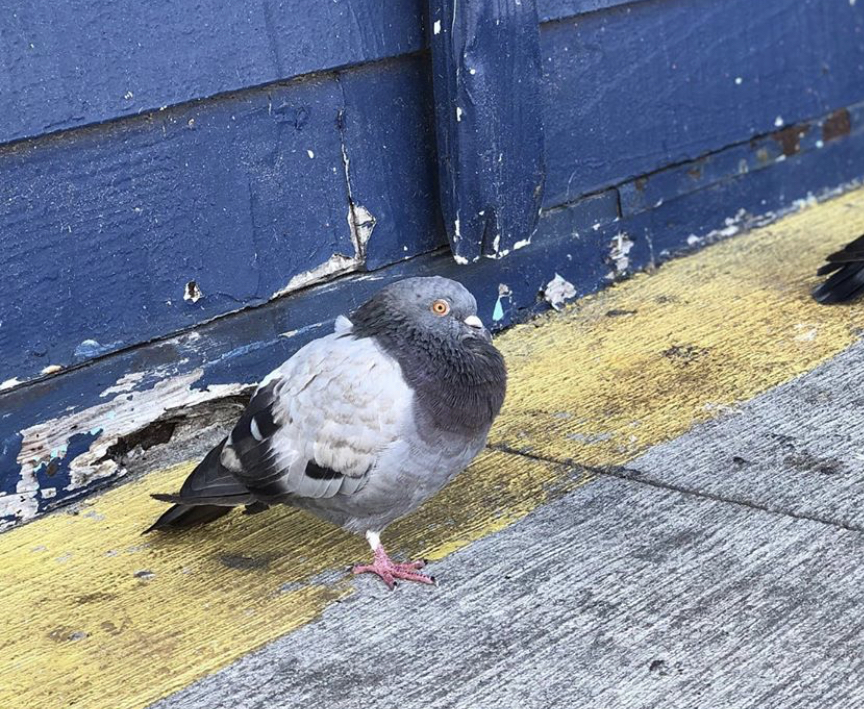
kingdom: Animalia
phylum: Chordata
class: Aves
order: Columbiformes
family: Columbidae
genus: Columba
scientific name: Columba livia
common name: Rock pigeon
